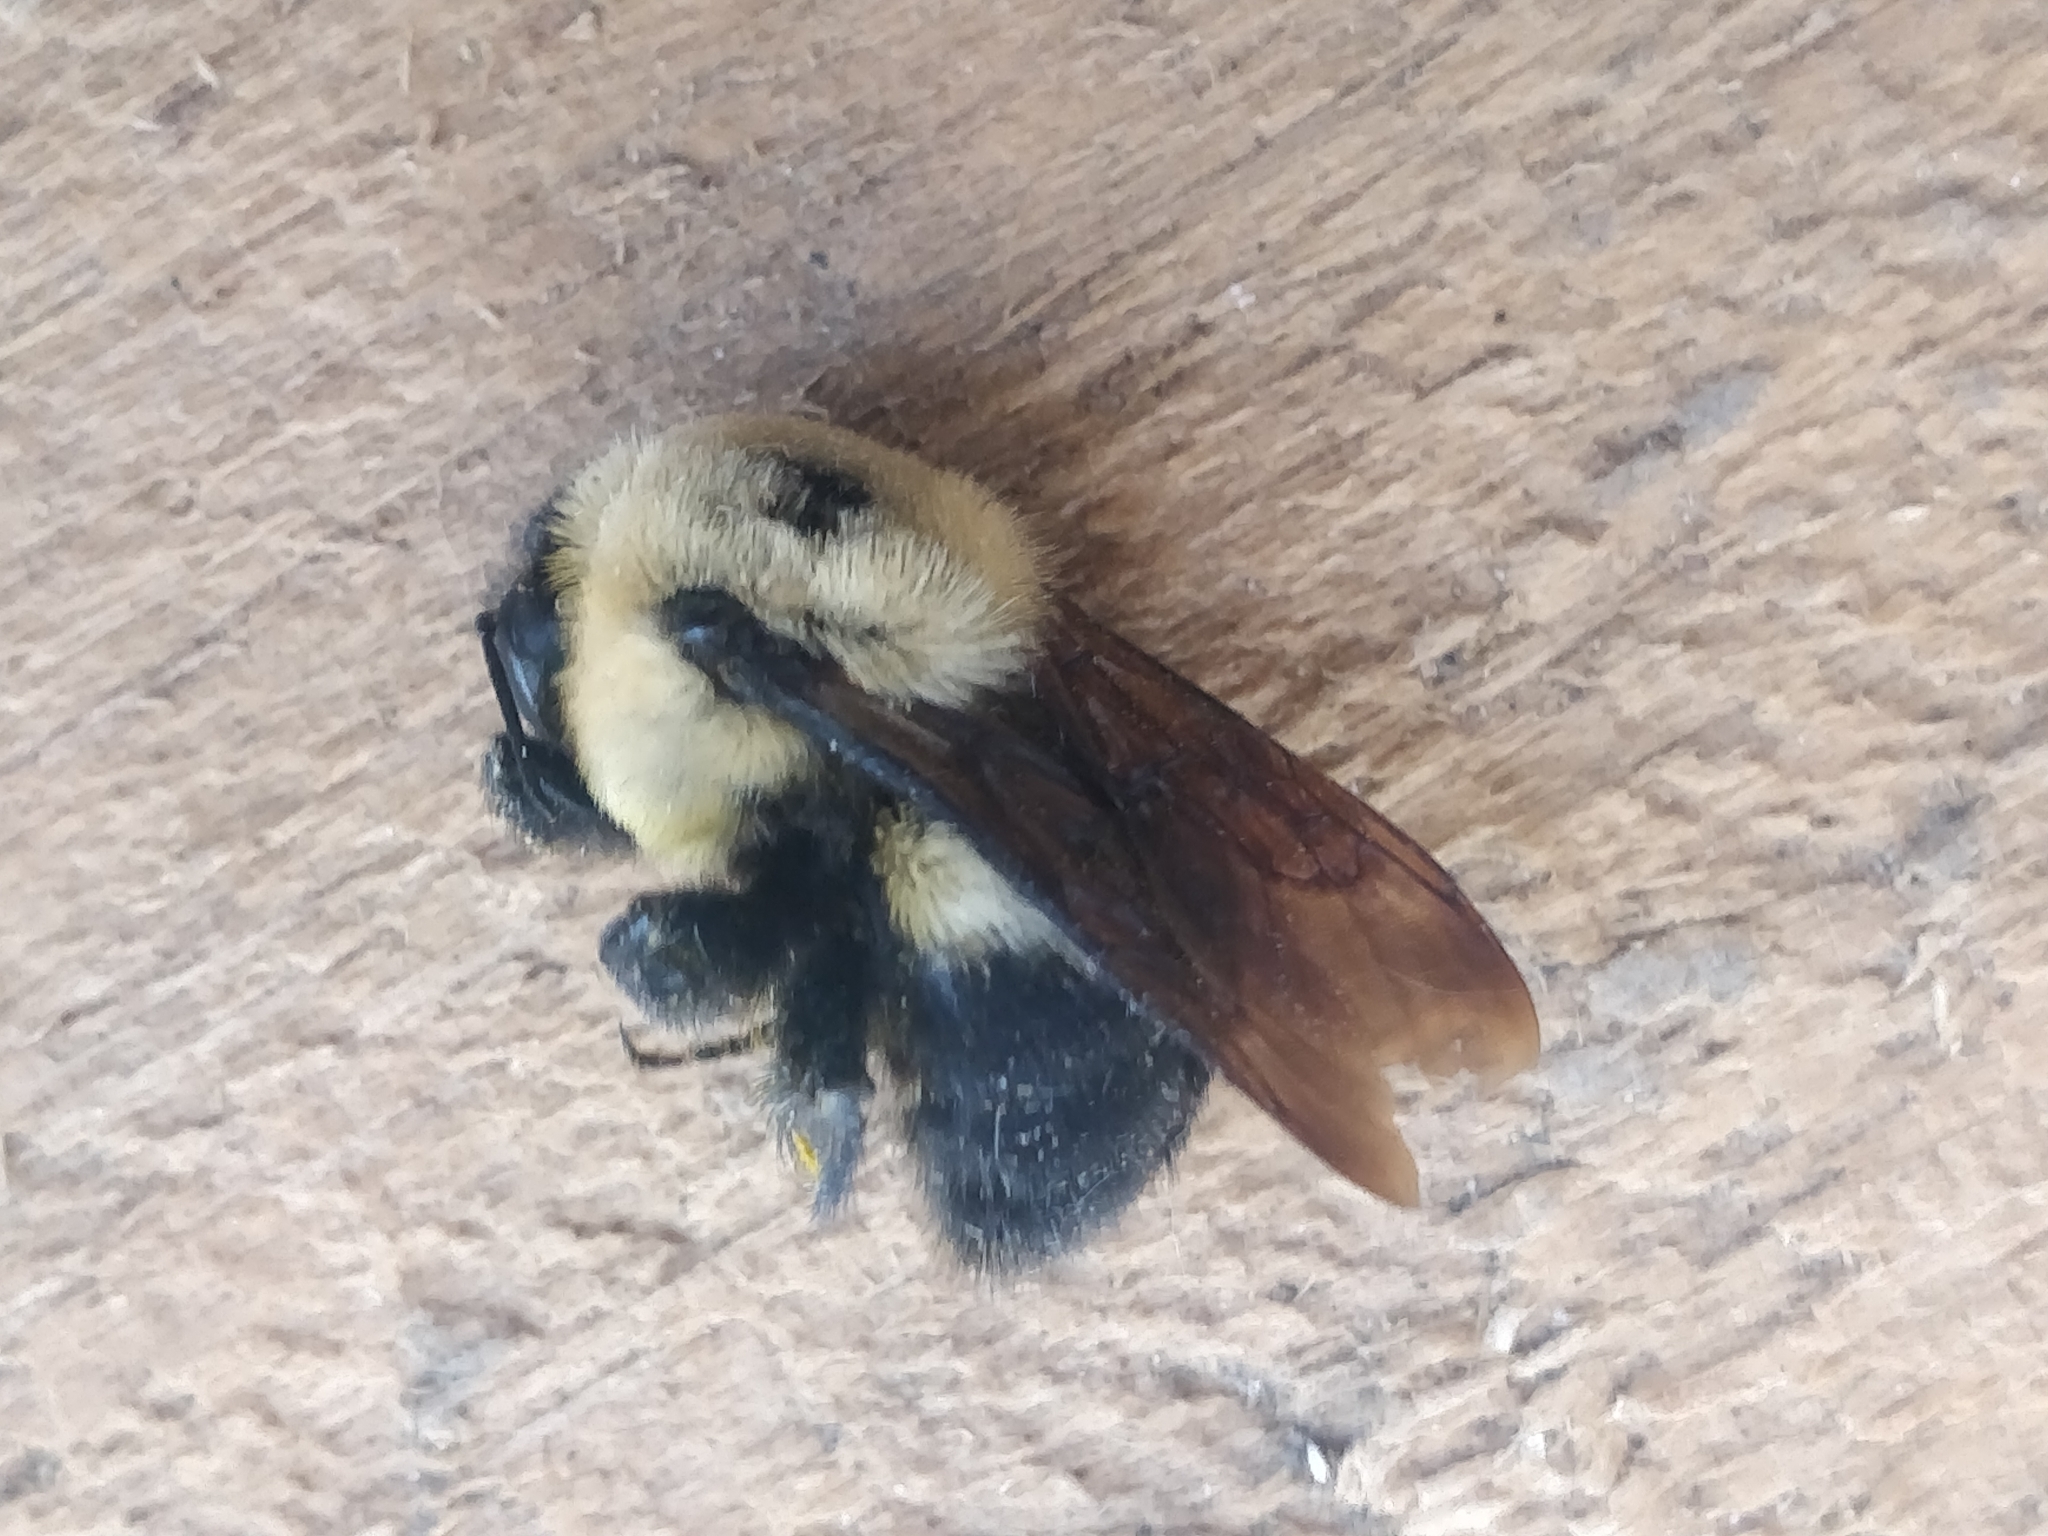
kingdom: Animalia
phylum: Arthropoda
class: Insecta
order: Hymenoptera
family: Apidae
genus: Bombus
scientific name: Bombus griseocollis
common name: Brown-belted bumble bee
